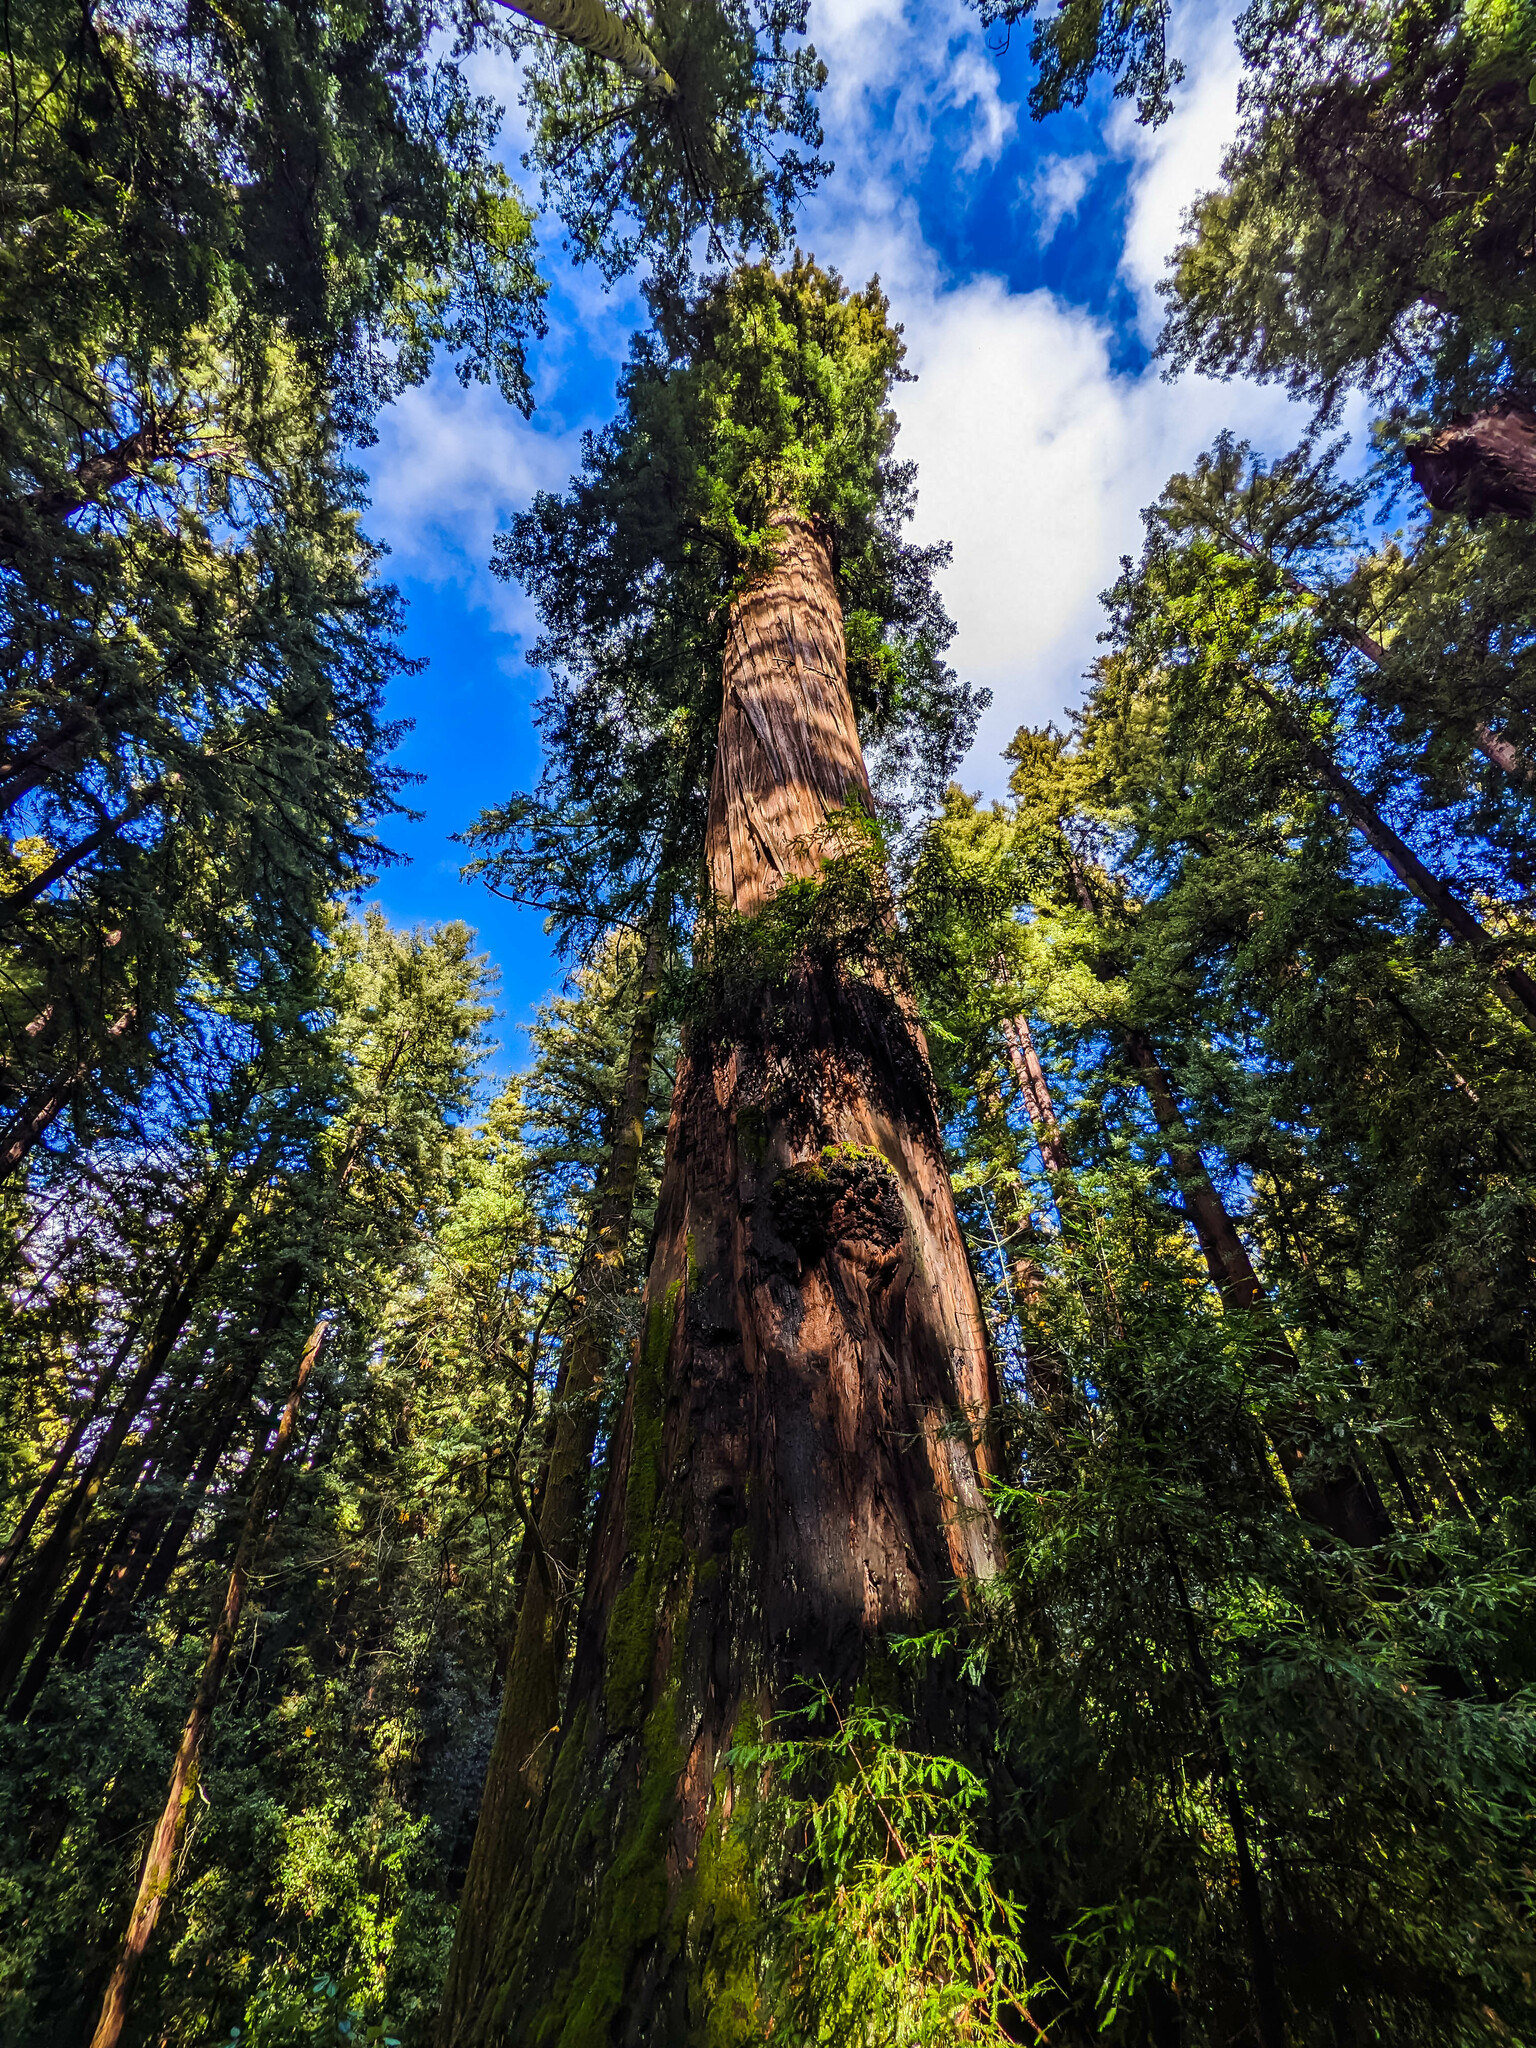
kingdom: Plantae
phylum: Tracheophyta
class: Pinopsida
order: Pinales
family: Cupressaceae
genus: Sequoia
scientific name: Sequoia sempervirens
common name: Coast redwood
